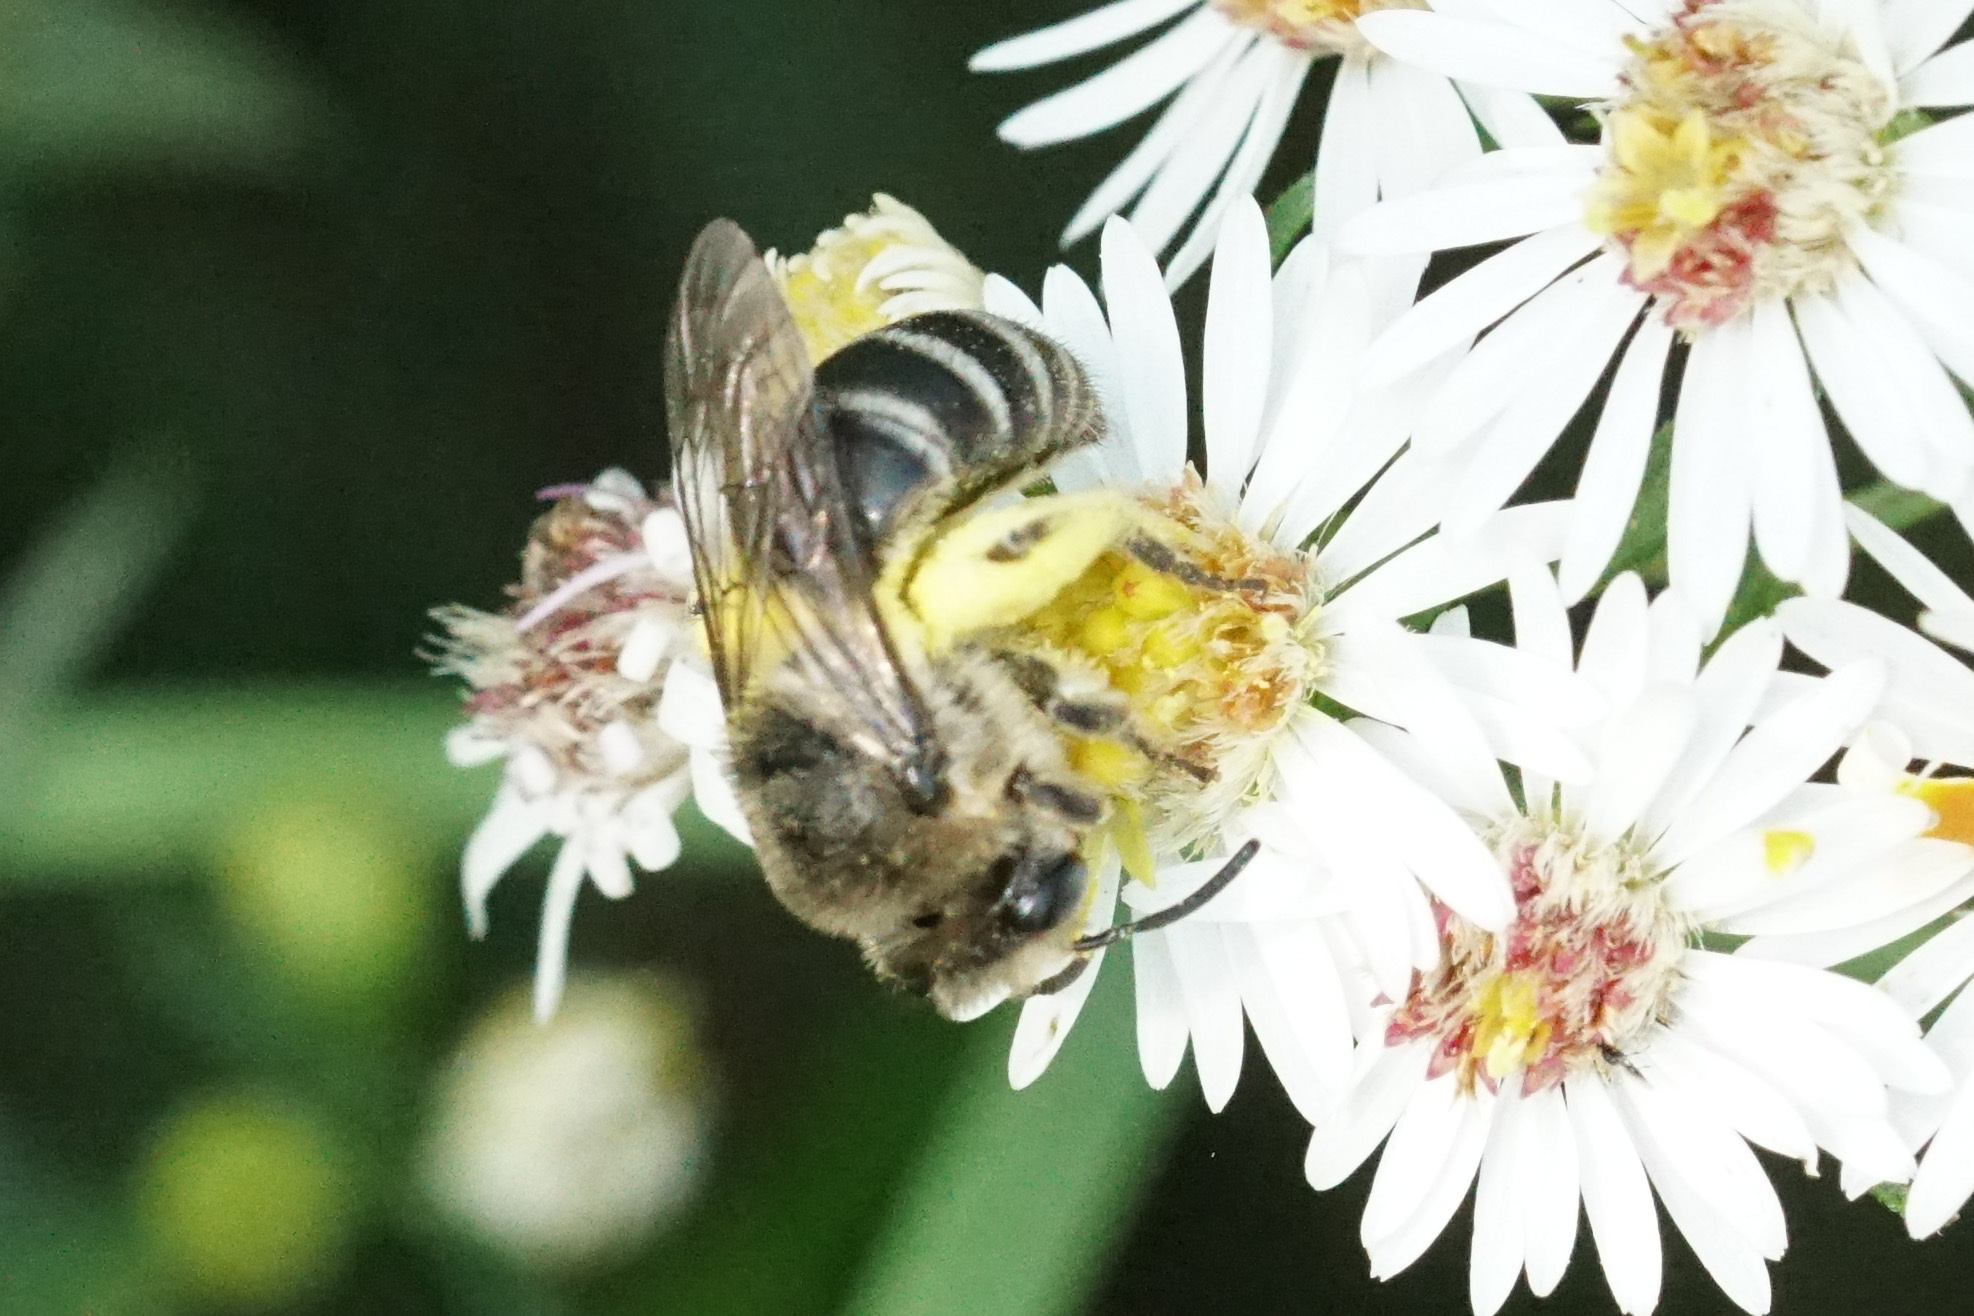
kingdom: Animalia
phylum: Arthropoda
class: Insecta
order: Hymenoptera
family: Colletidae
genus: Colletes
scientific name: Colletes compactus
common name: Aster cellophane bee
